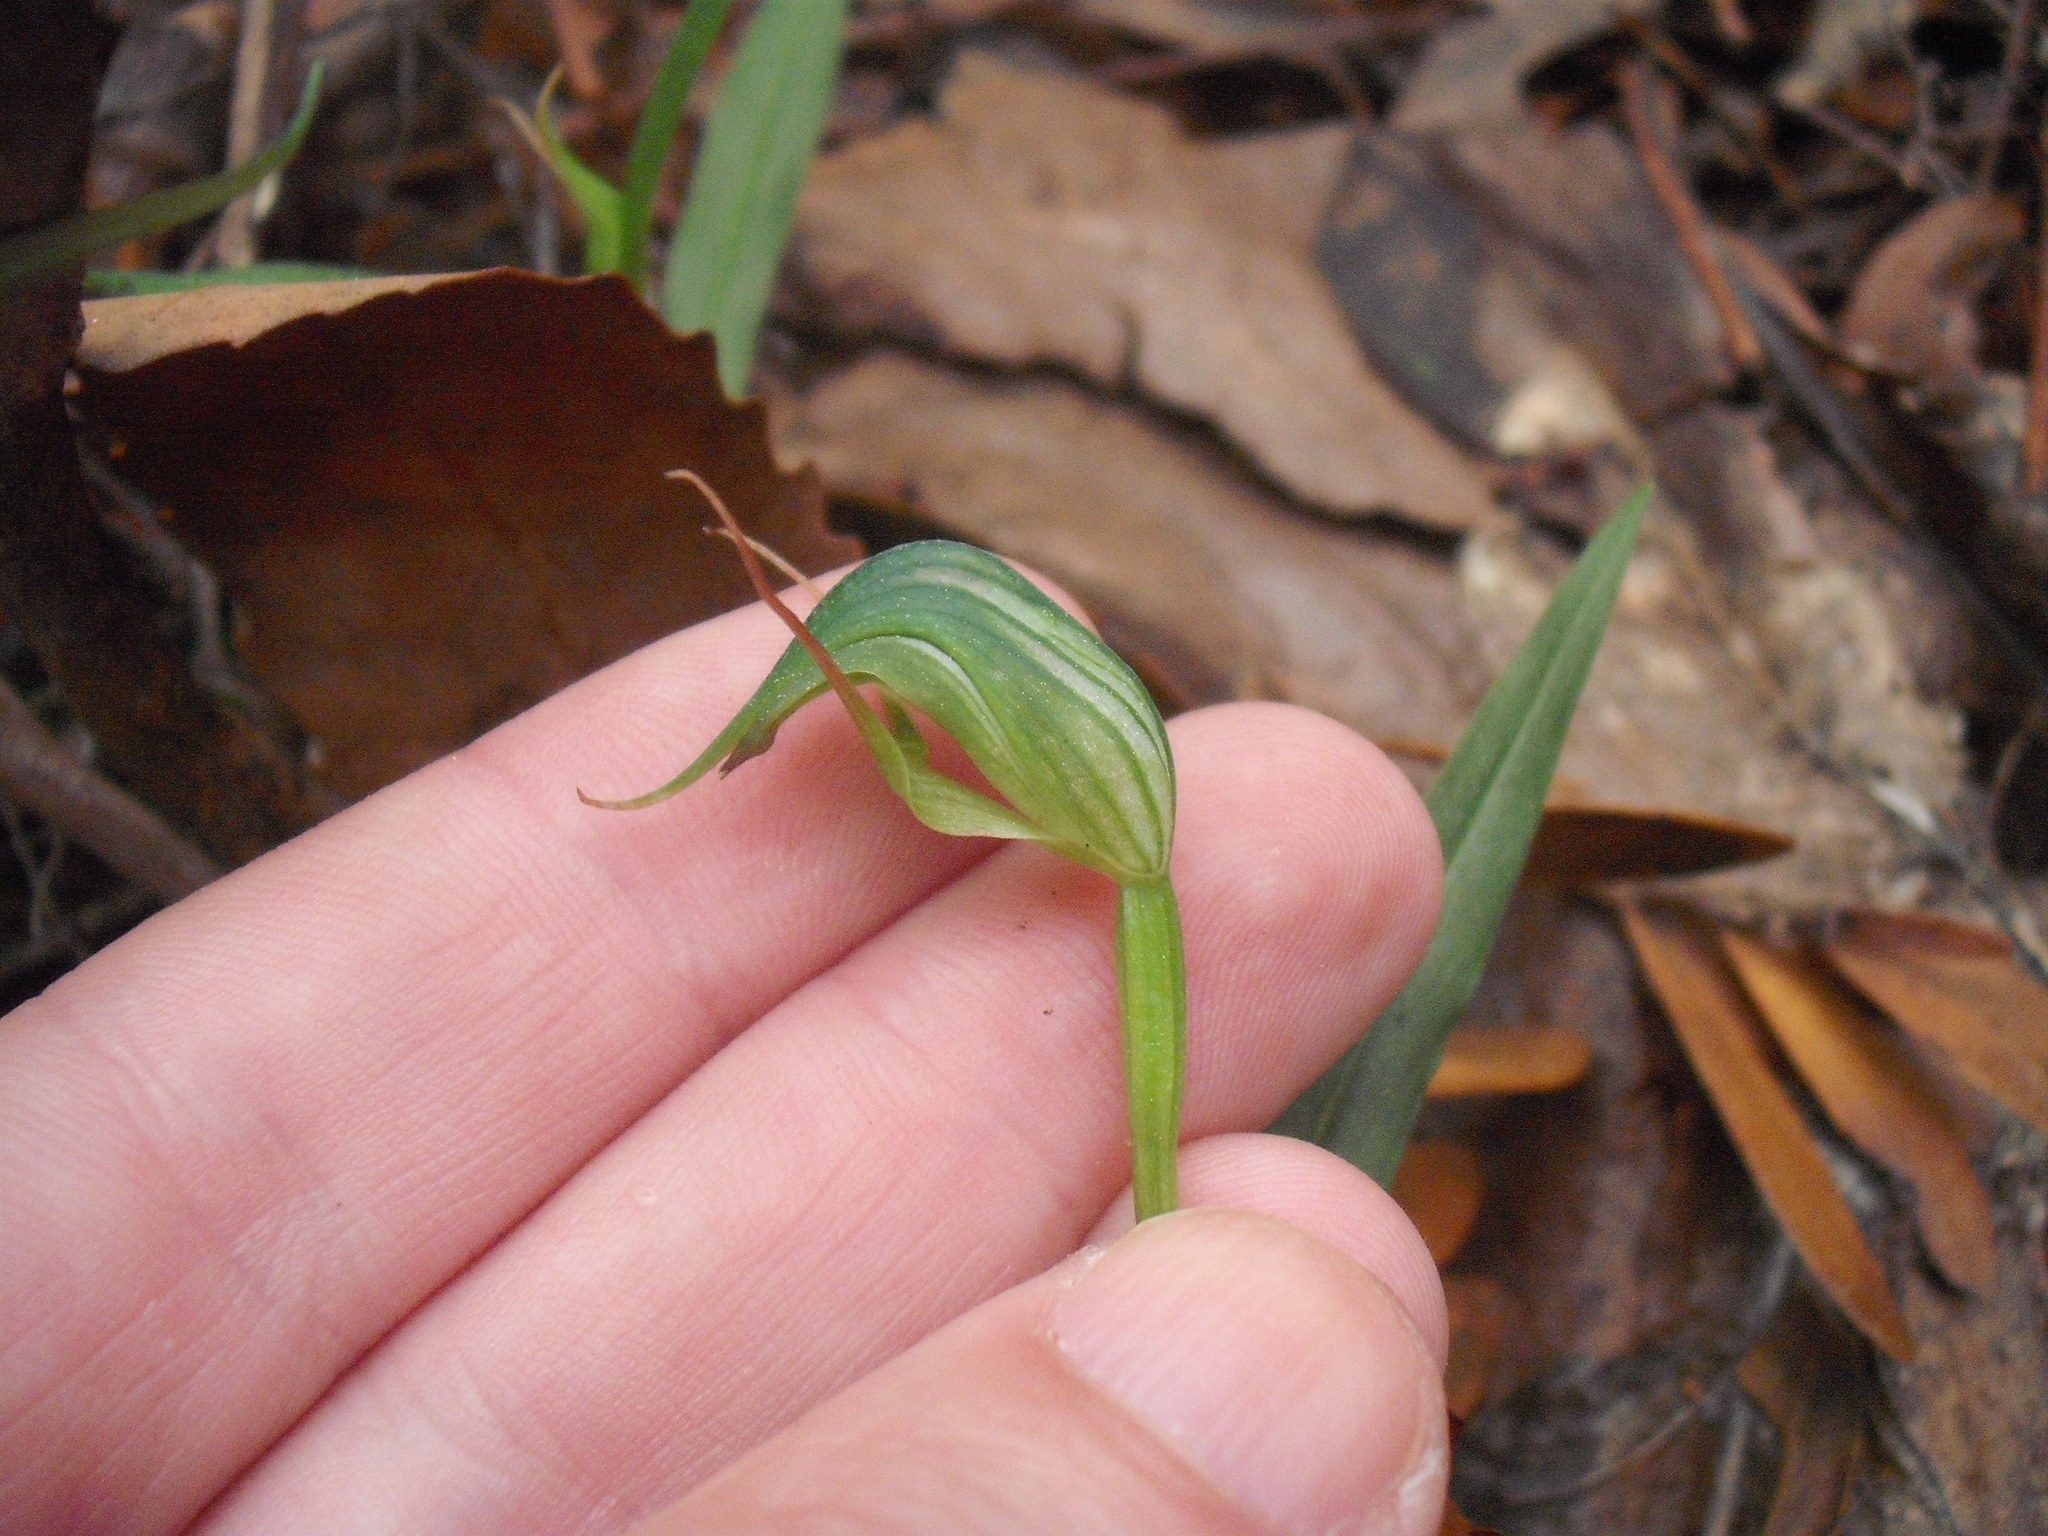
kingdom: Plantae
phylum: Tracheophyta
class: Liliopsida
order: Asparagales
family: Orchidaceae
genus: Pterostylis
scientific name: Pterostylis agathicola
